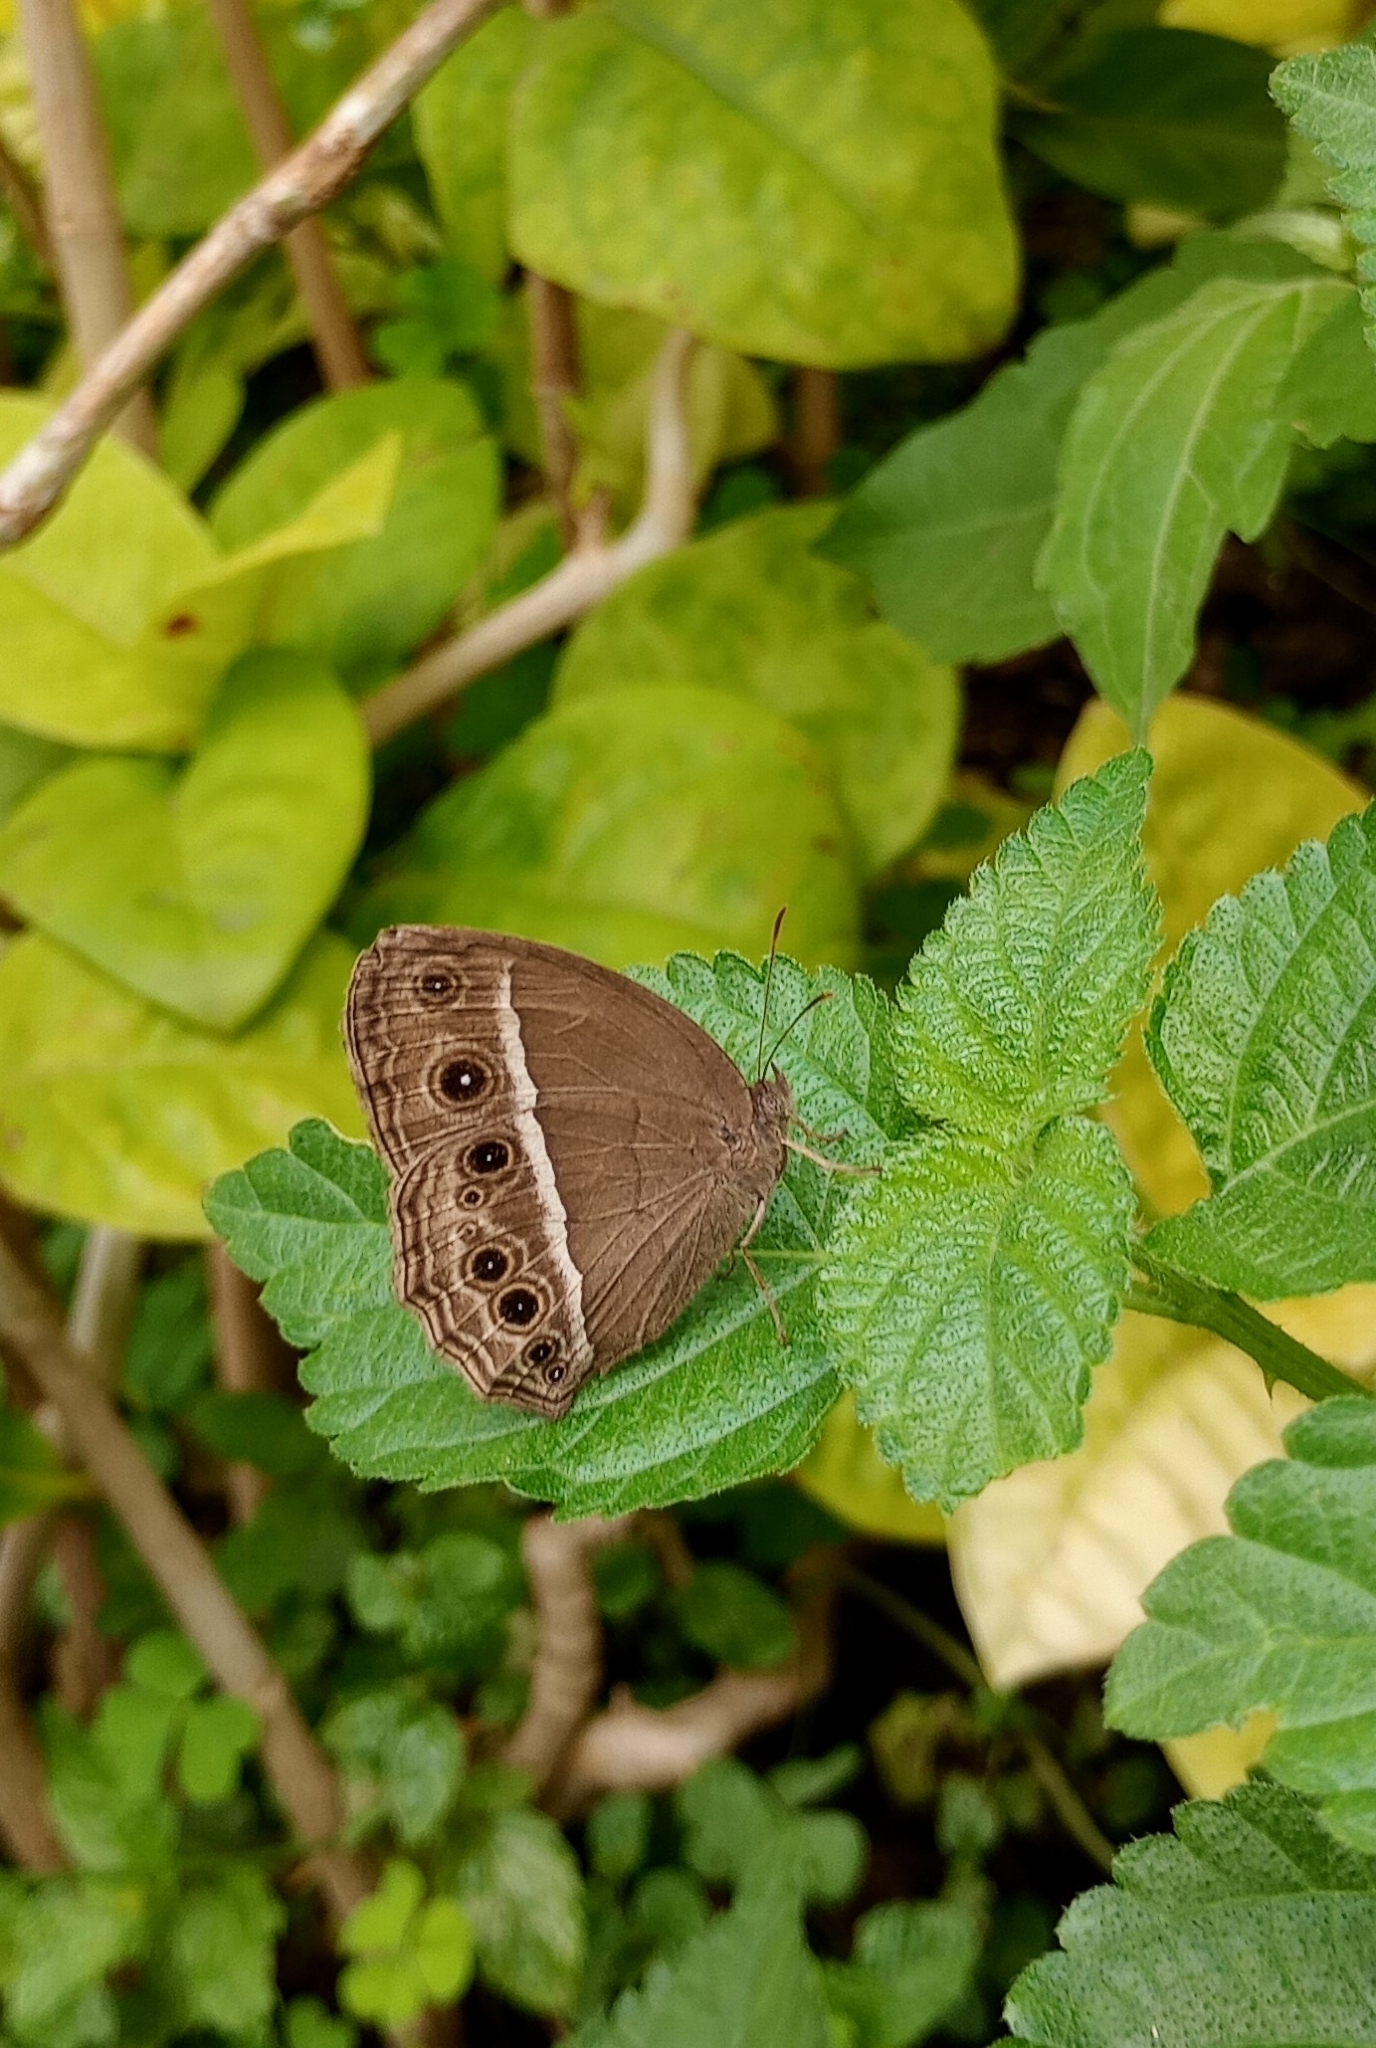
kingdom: Animalia
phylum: Arthropoda
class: Insecta
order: Lepidoptera
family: Nymphalidae
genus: Mycalesis
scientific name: Mycalesis mineus
